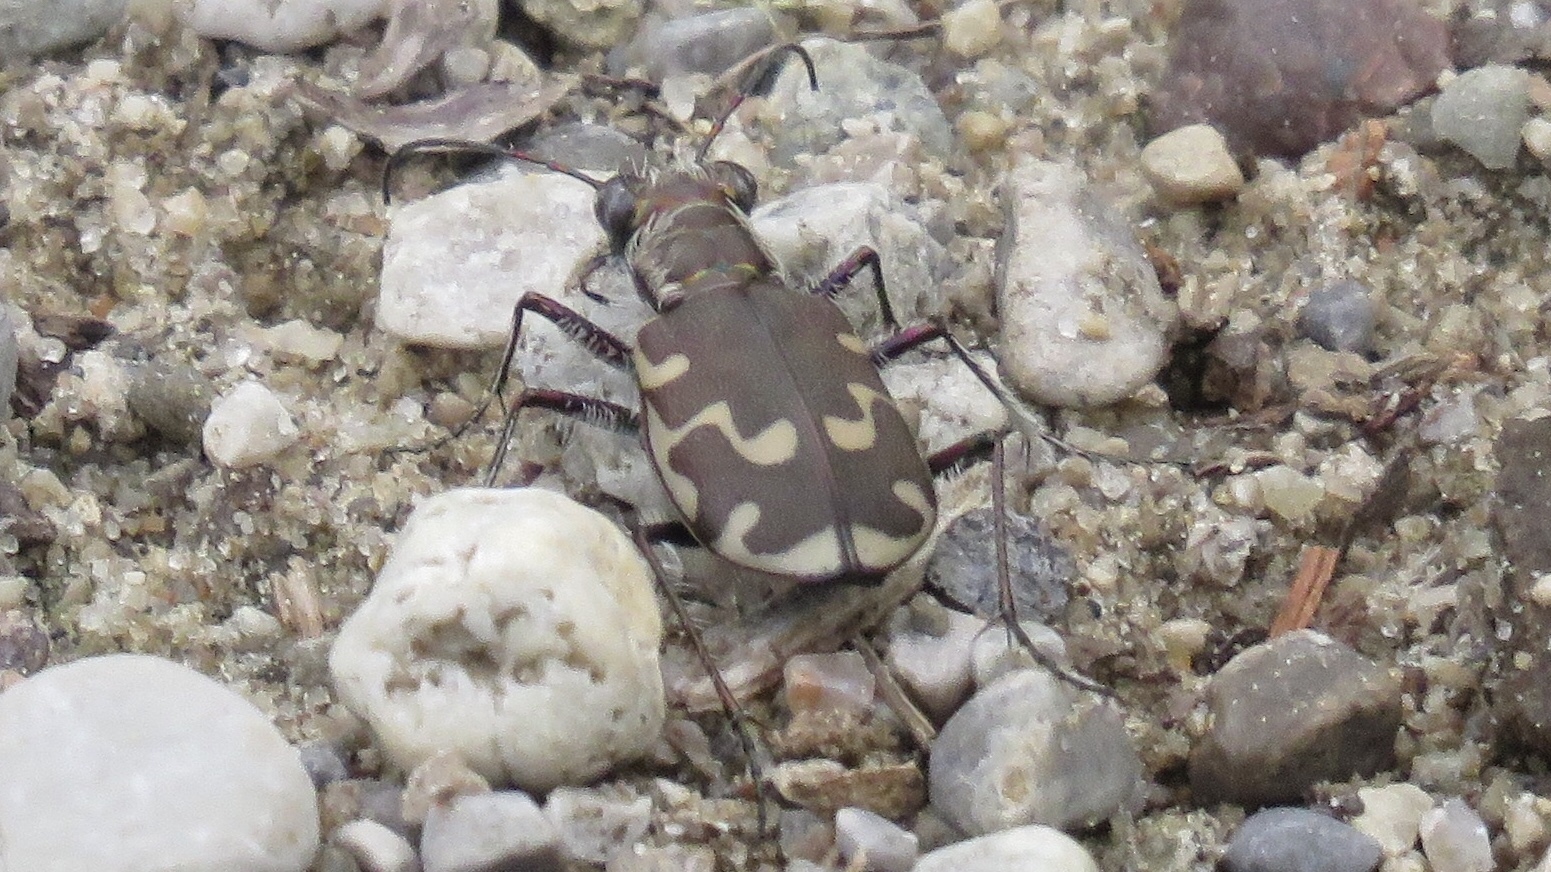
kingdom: Animalia
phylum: Arthropoda
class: Insecta
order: Coleoptera
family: Carabidae
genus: Cicindela
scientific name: Cicindela repanda
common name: Bronzed tiger beetle
